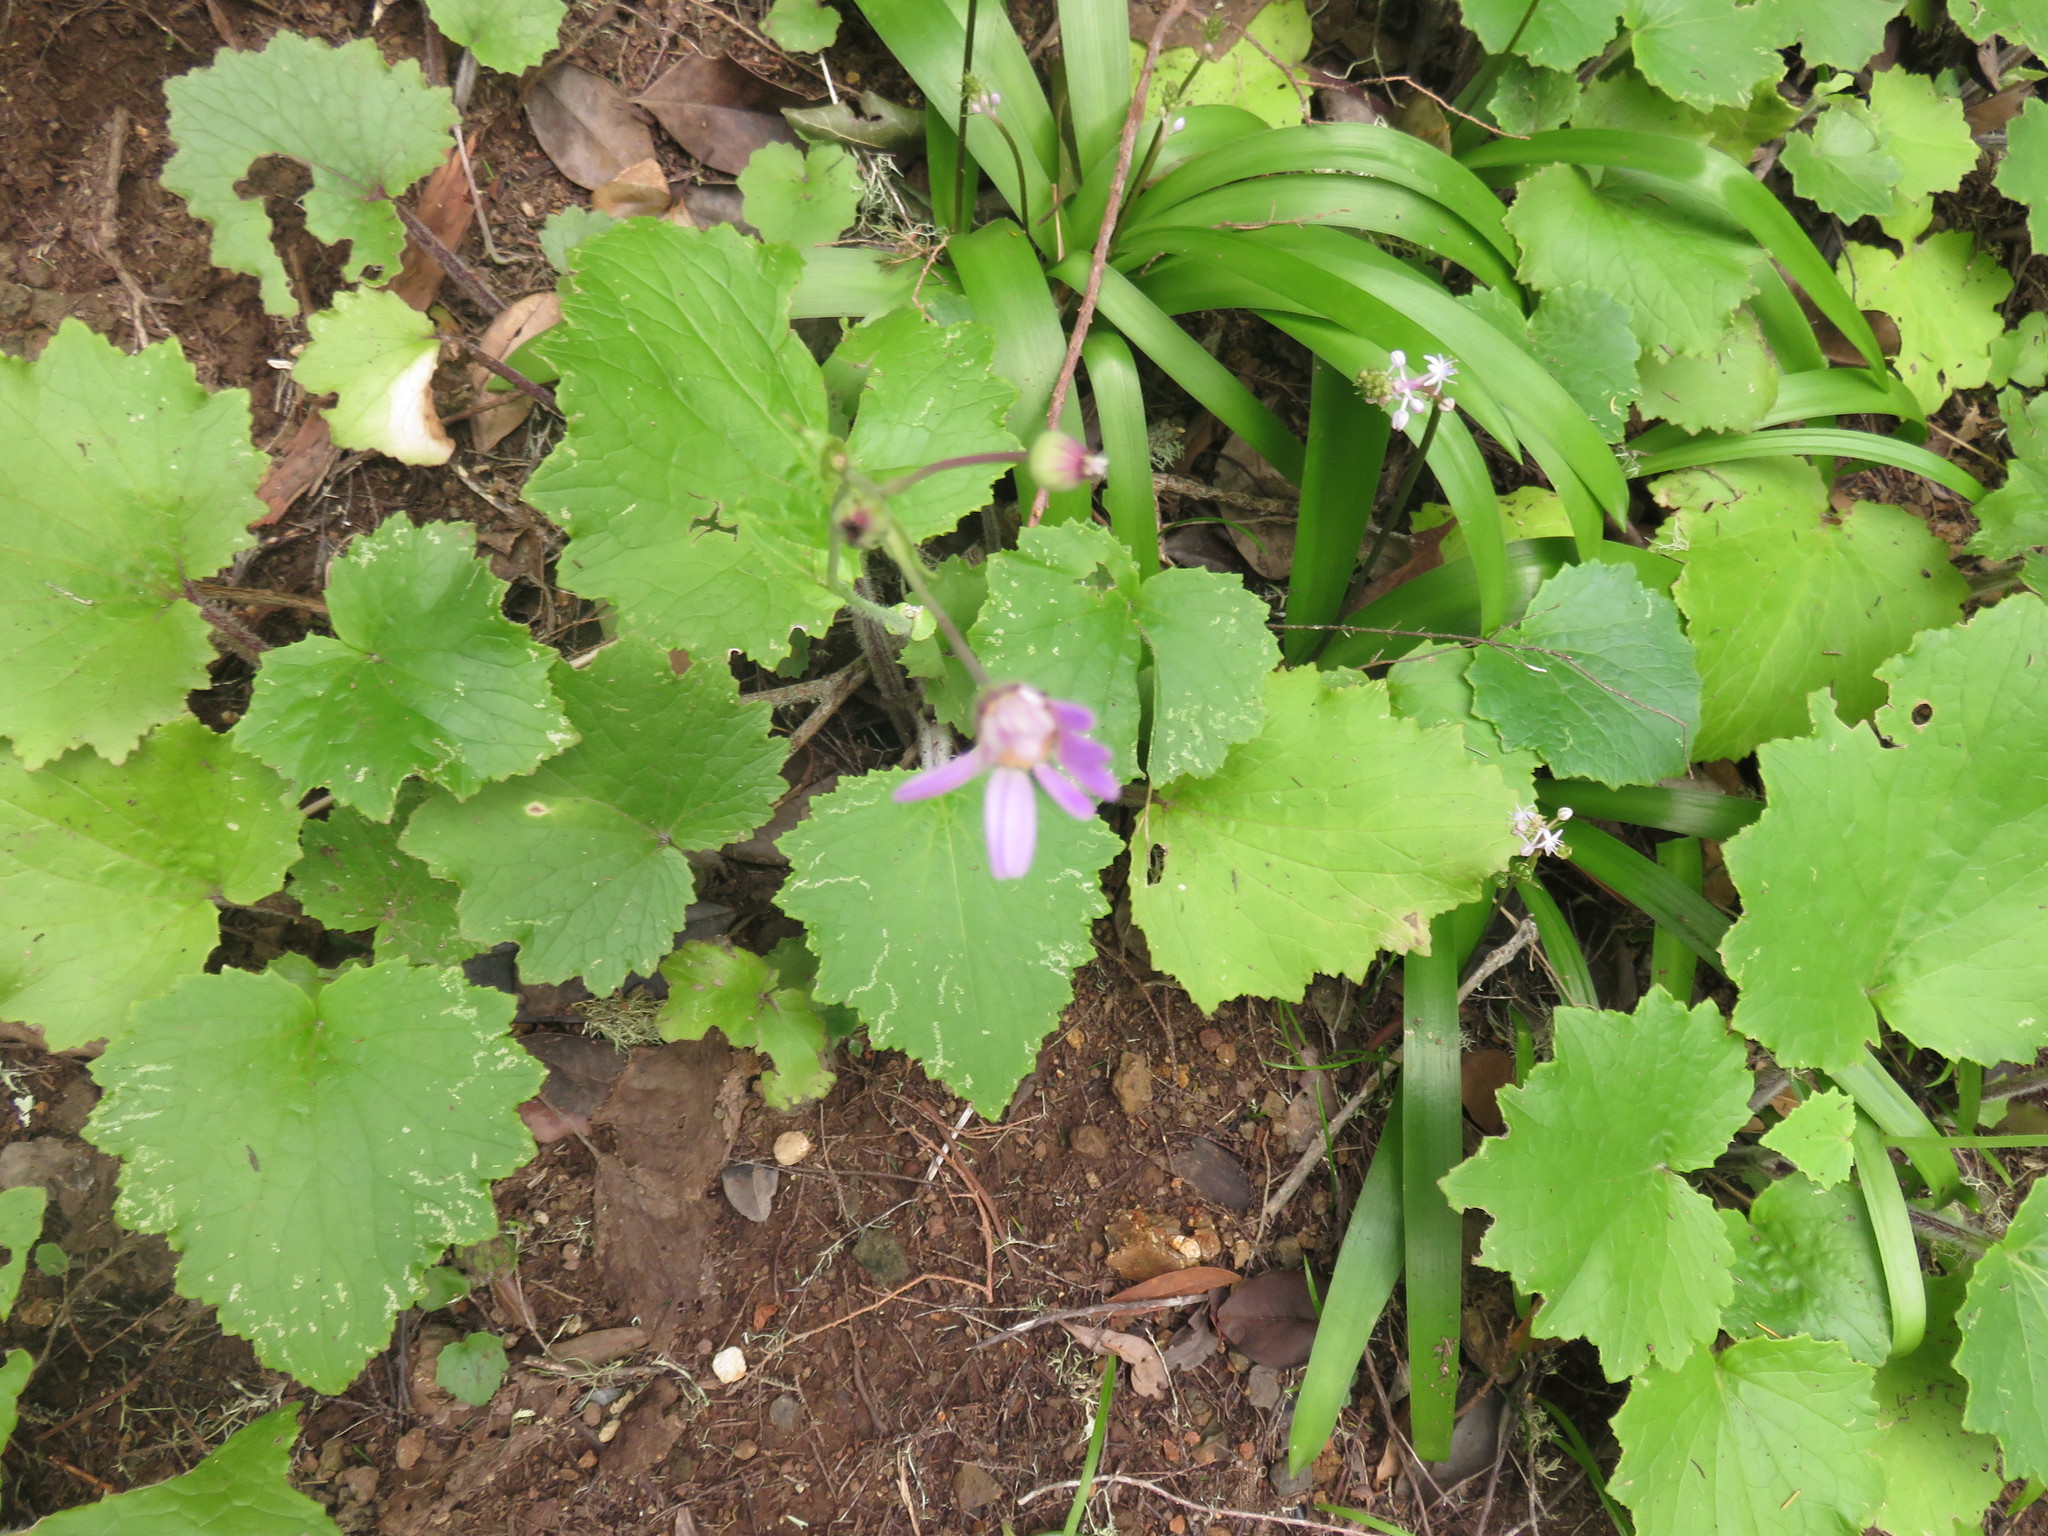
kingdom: Plantae
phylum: Tracheophyta
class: Magnoliopsida
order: Asterales
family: Asteraceae
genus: Pericallis
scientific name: Pericallis tussilaginis
